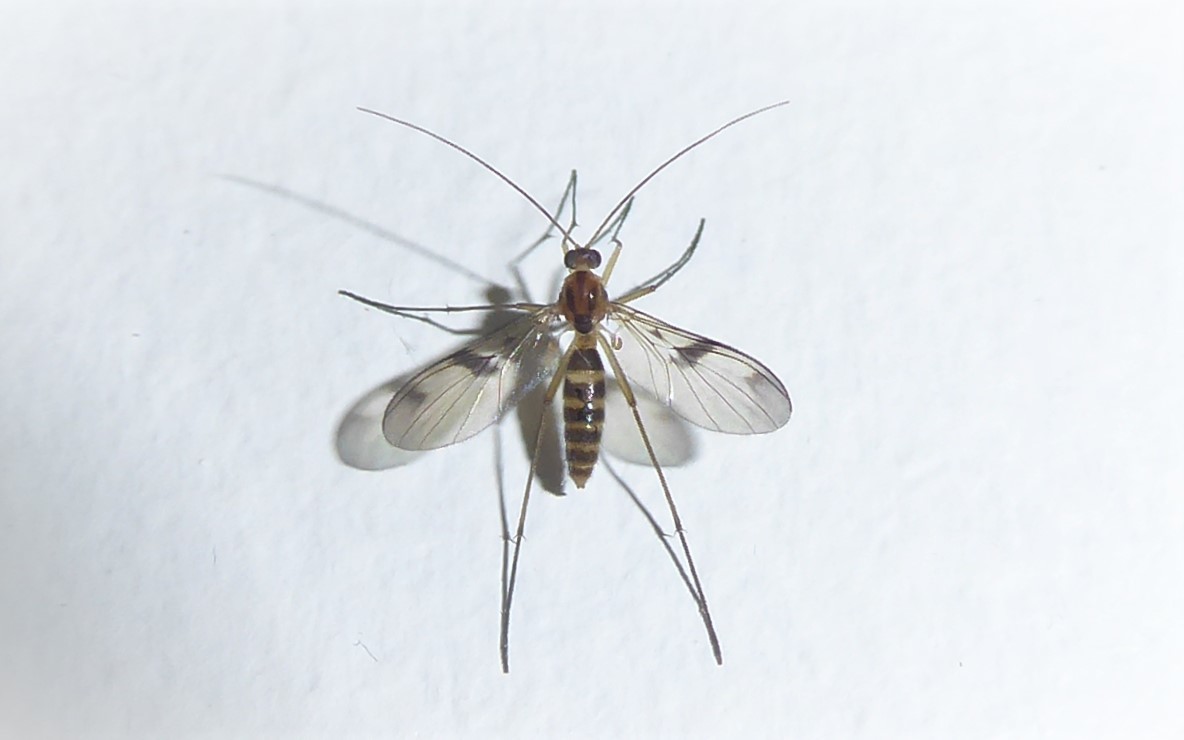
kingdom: Animalia
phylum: Arthropoda
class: Insecta
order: Diptera
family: Keroplatidae
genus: Macrocera
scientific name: Macrocera scoparia
